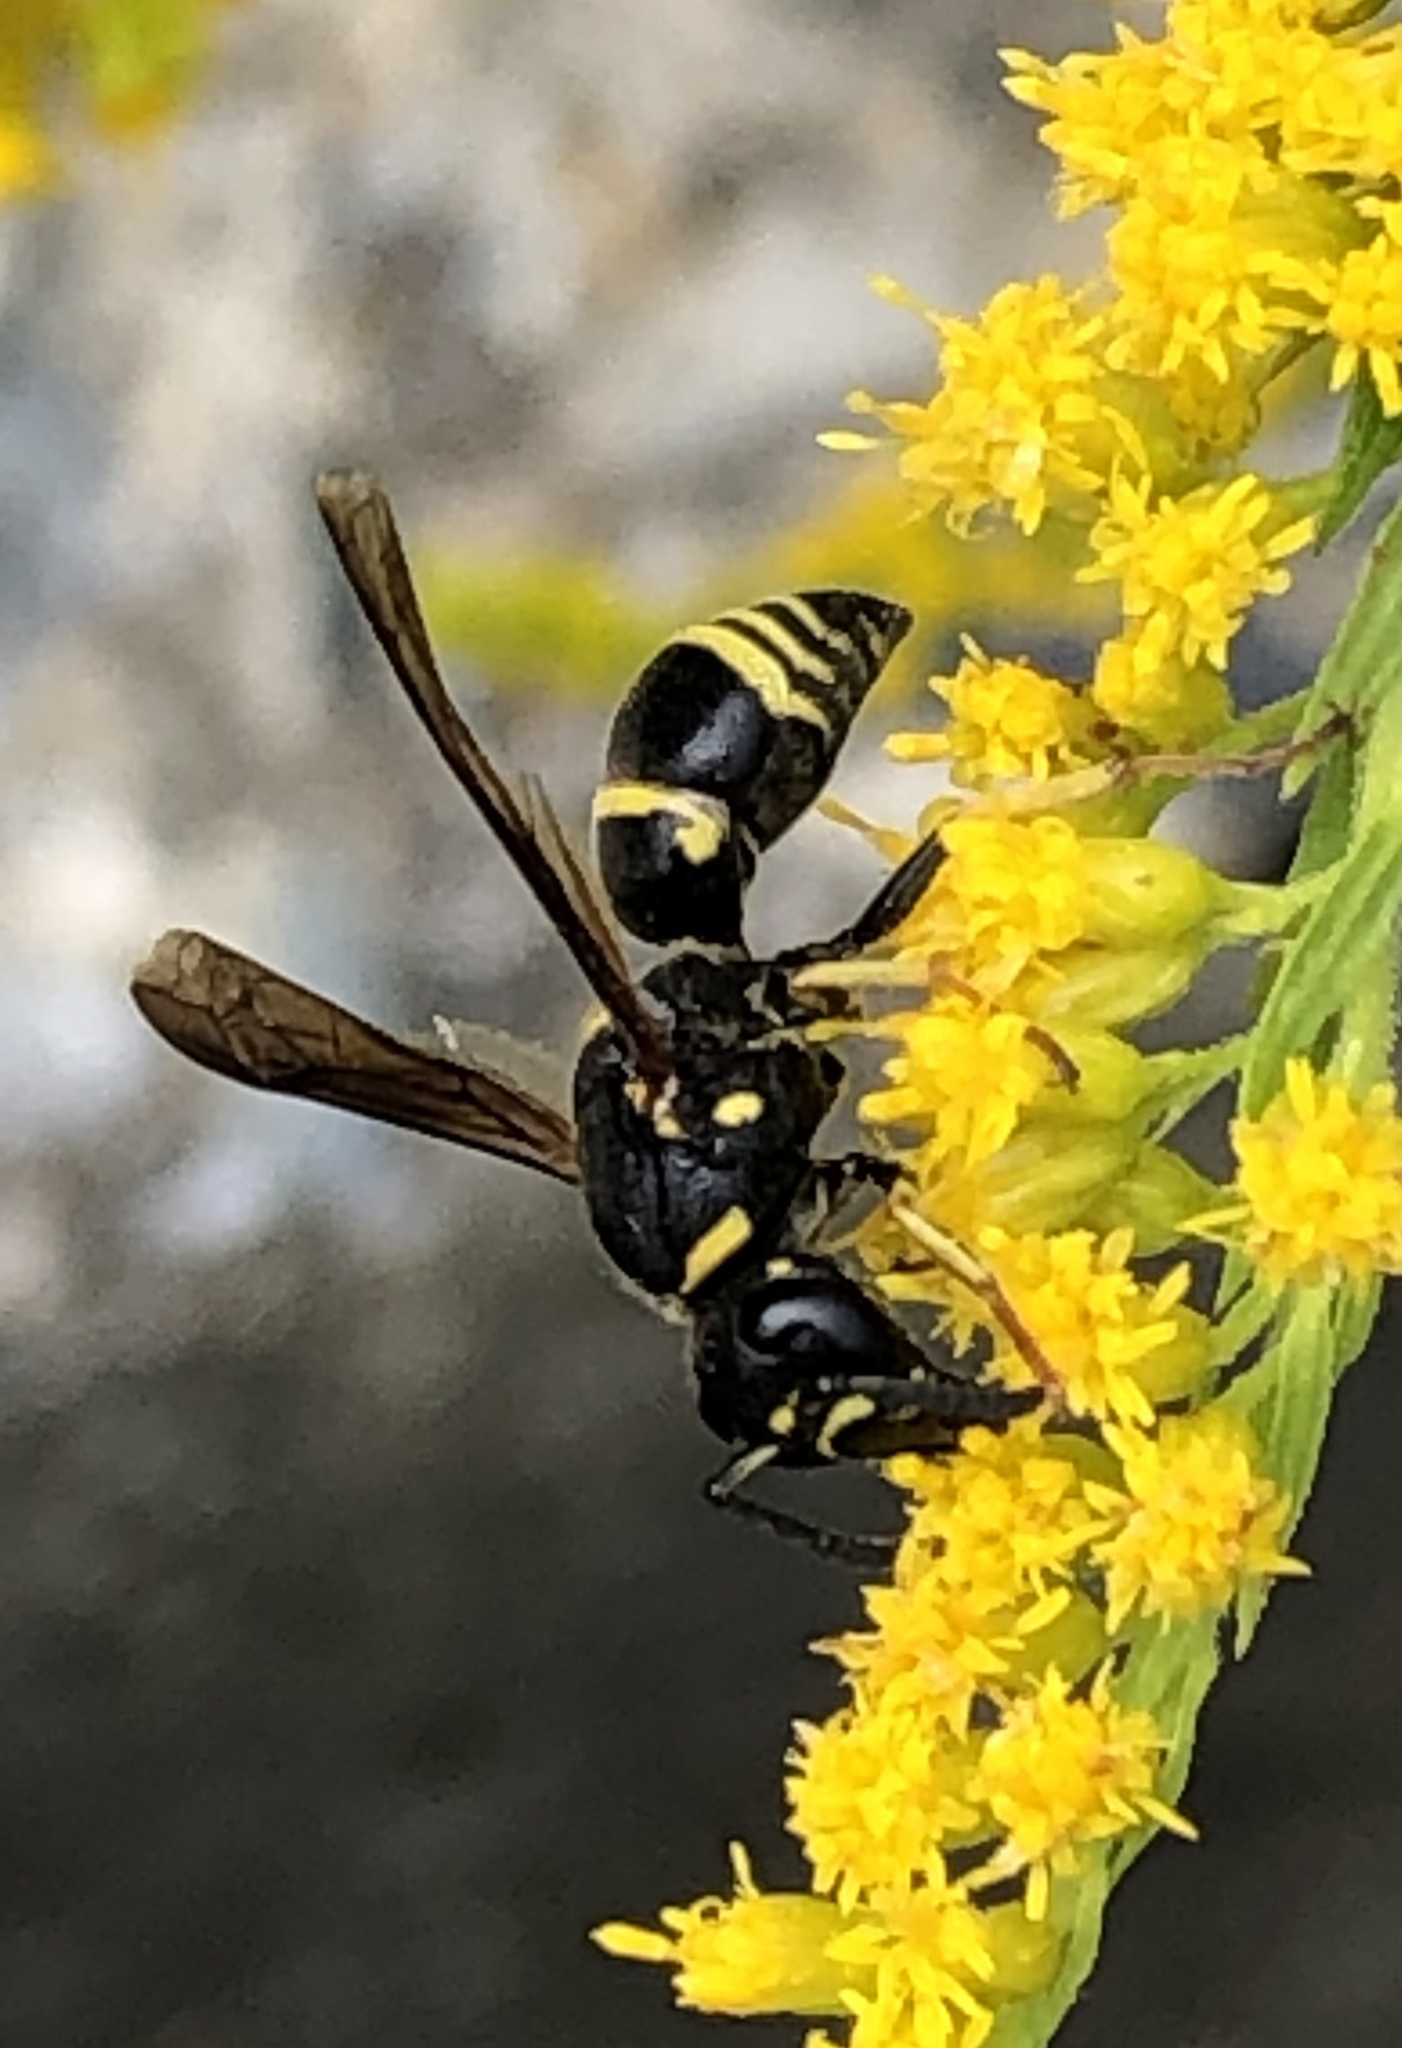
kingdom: Animalia
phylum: Arthropoda
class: Insecta
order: Hymenoptera
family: Eumenidae
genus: Euodynerus
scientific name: Euodynerus foraminatus
